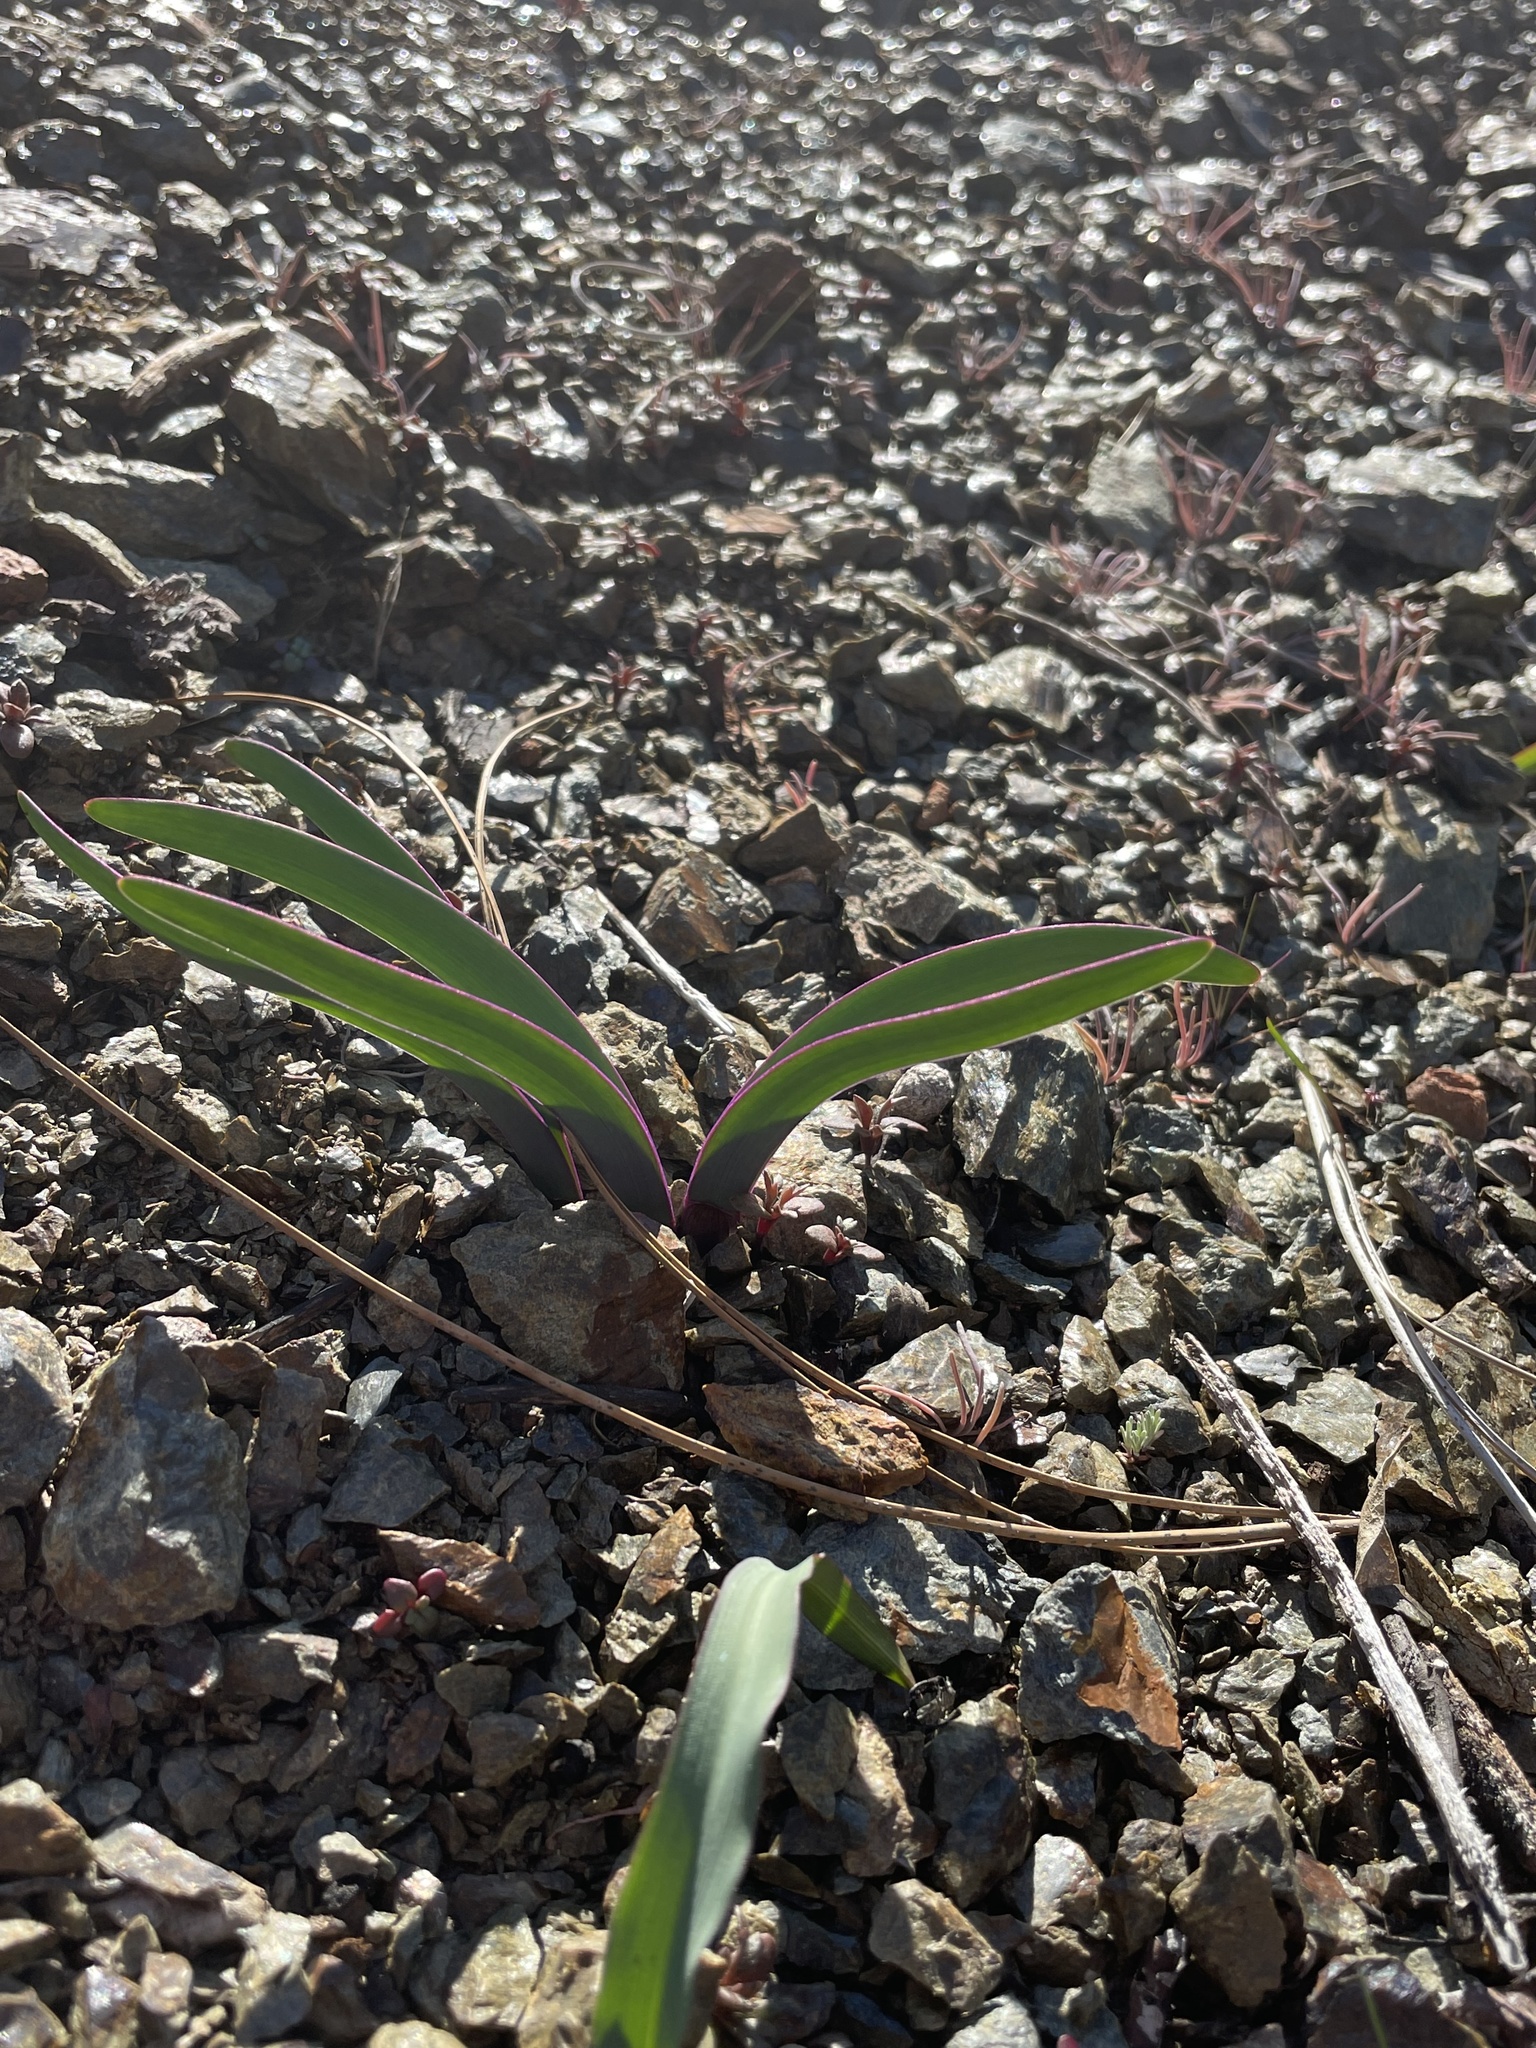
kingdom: Plantae
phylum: Tracheophyta
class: Liliopsida
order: Asparagales
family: Amaryllidaceae
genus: Allium
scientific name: Allium falcifolium
